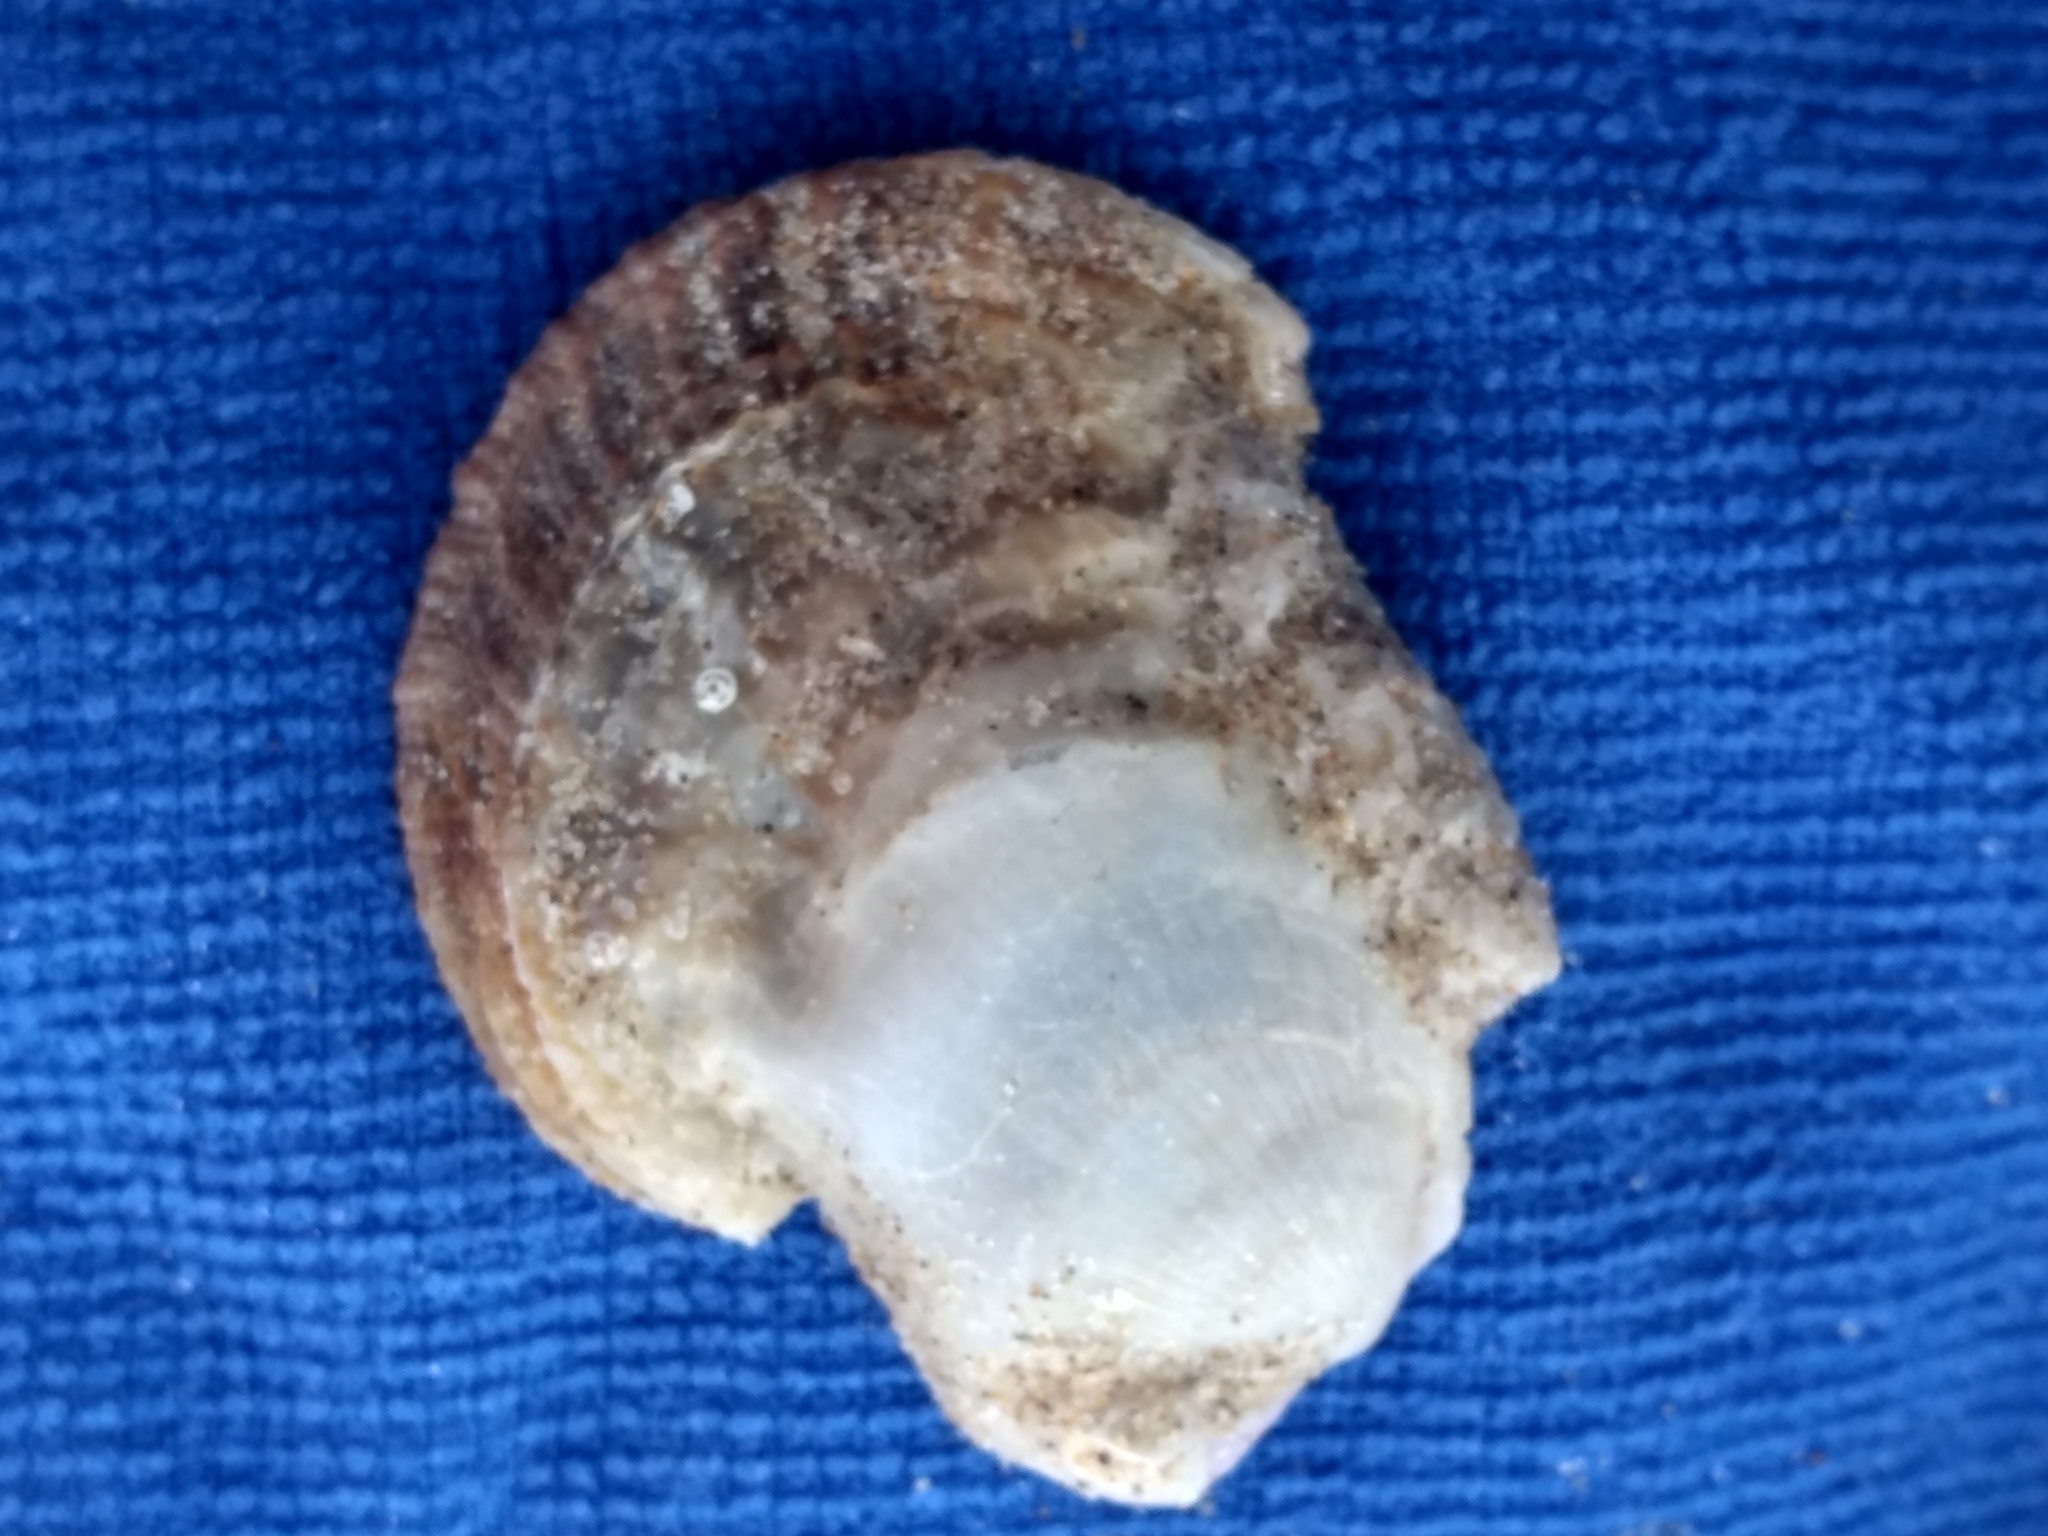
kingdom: Animalia
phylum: Mollusca
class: Bivalvia
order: Pectinida
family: Pectinidae
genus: Crassadoma
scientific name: Crassadoma gigantea
